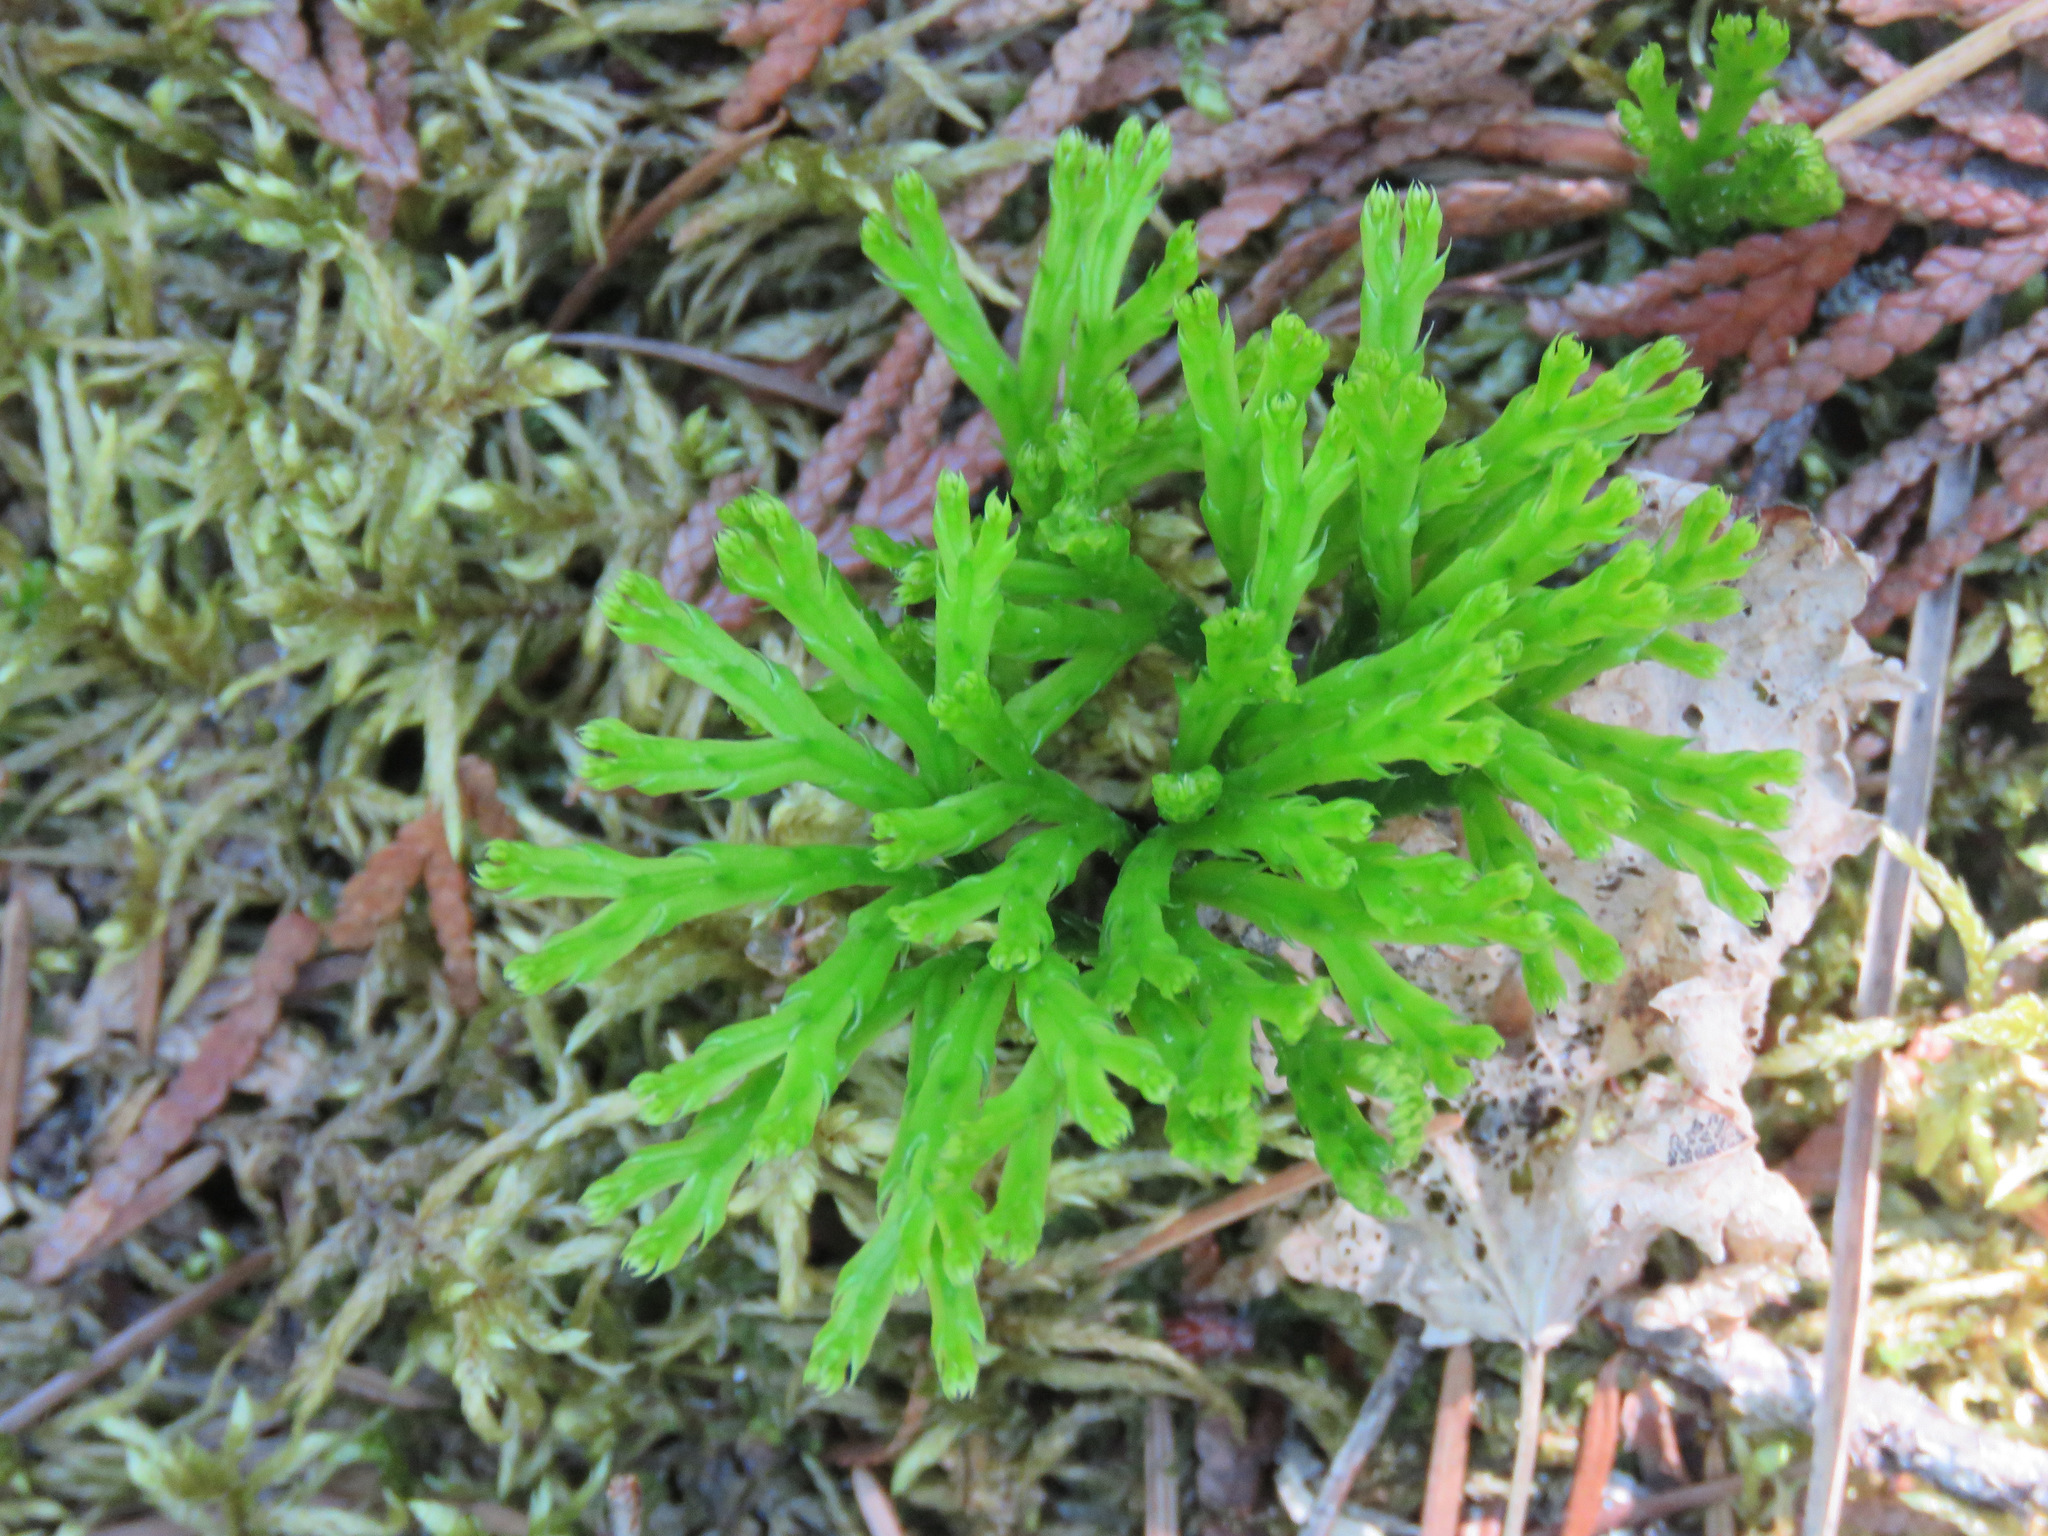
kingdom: Plantae
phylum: Tracheophyta
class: Lycopodiopsida
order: Lycopodiales
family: Lycopodiaceae
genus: Diphasiastrum
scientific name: Diphasiastrum complanatum
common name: Northern running-pine
